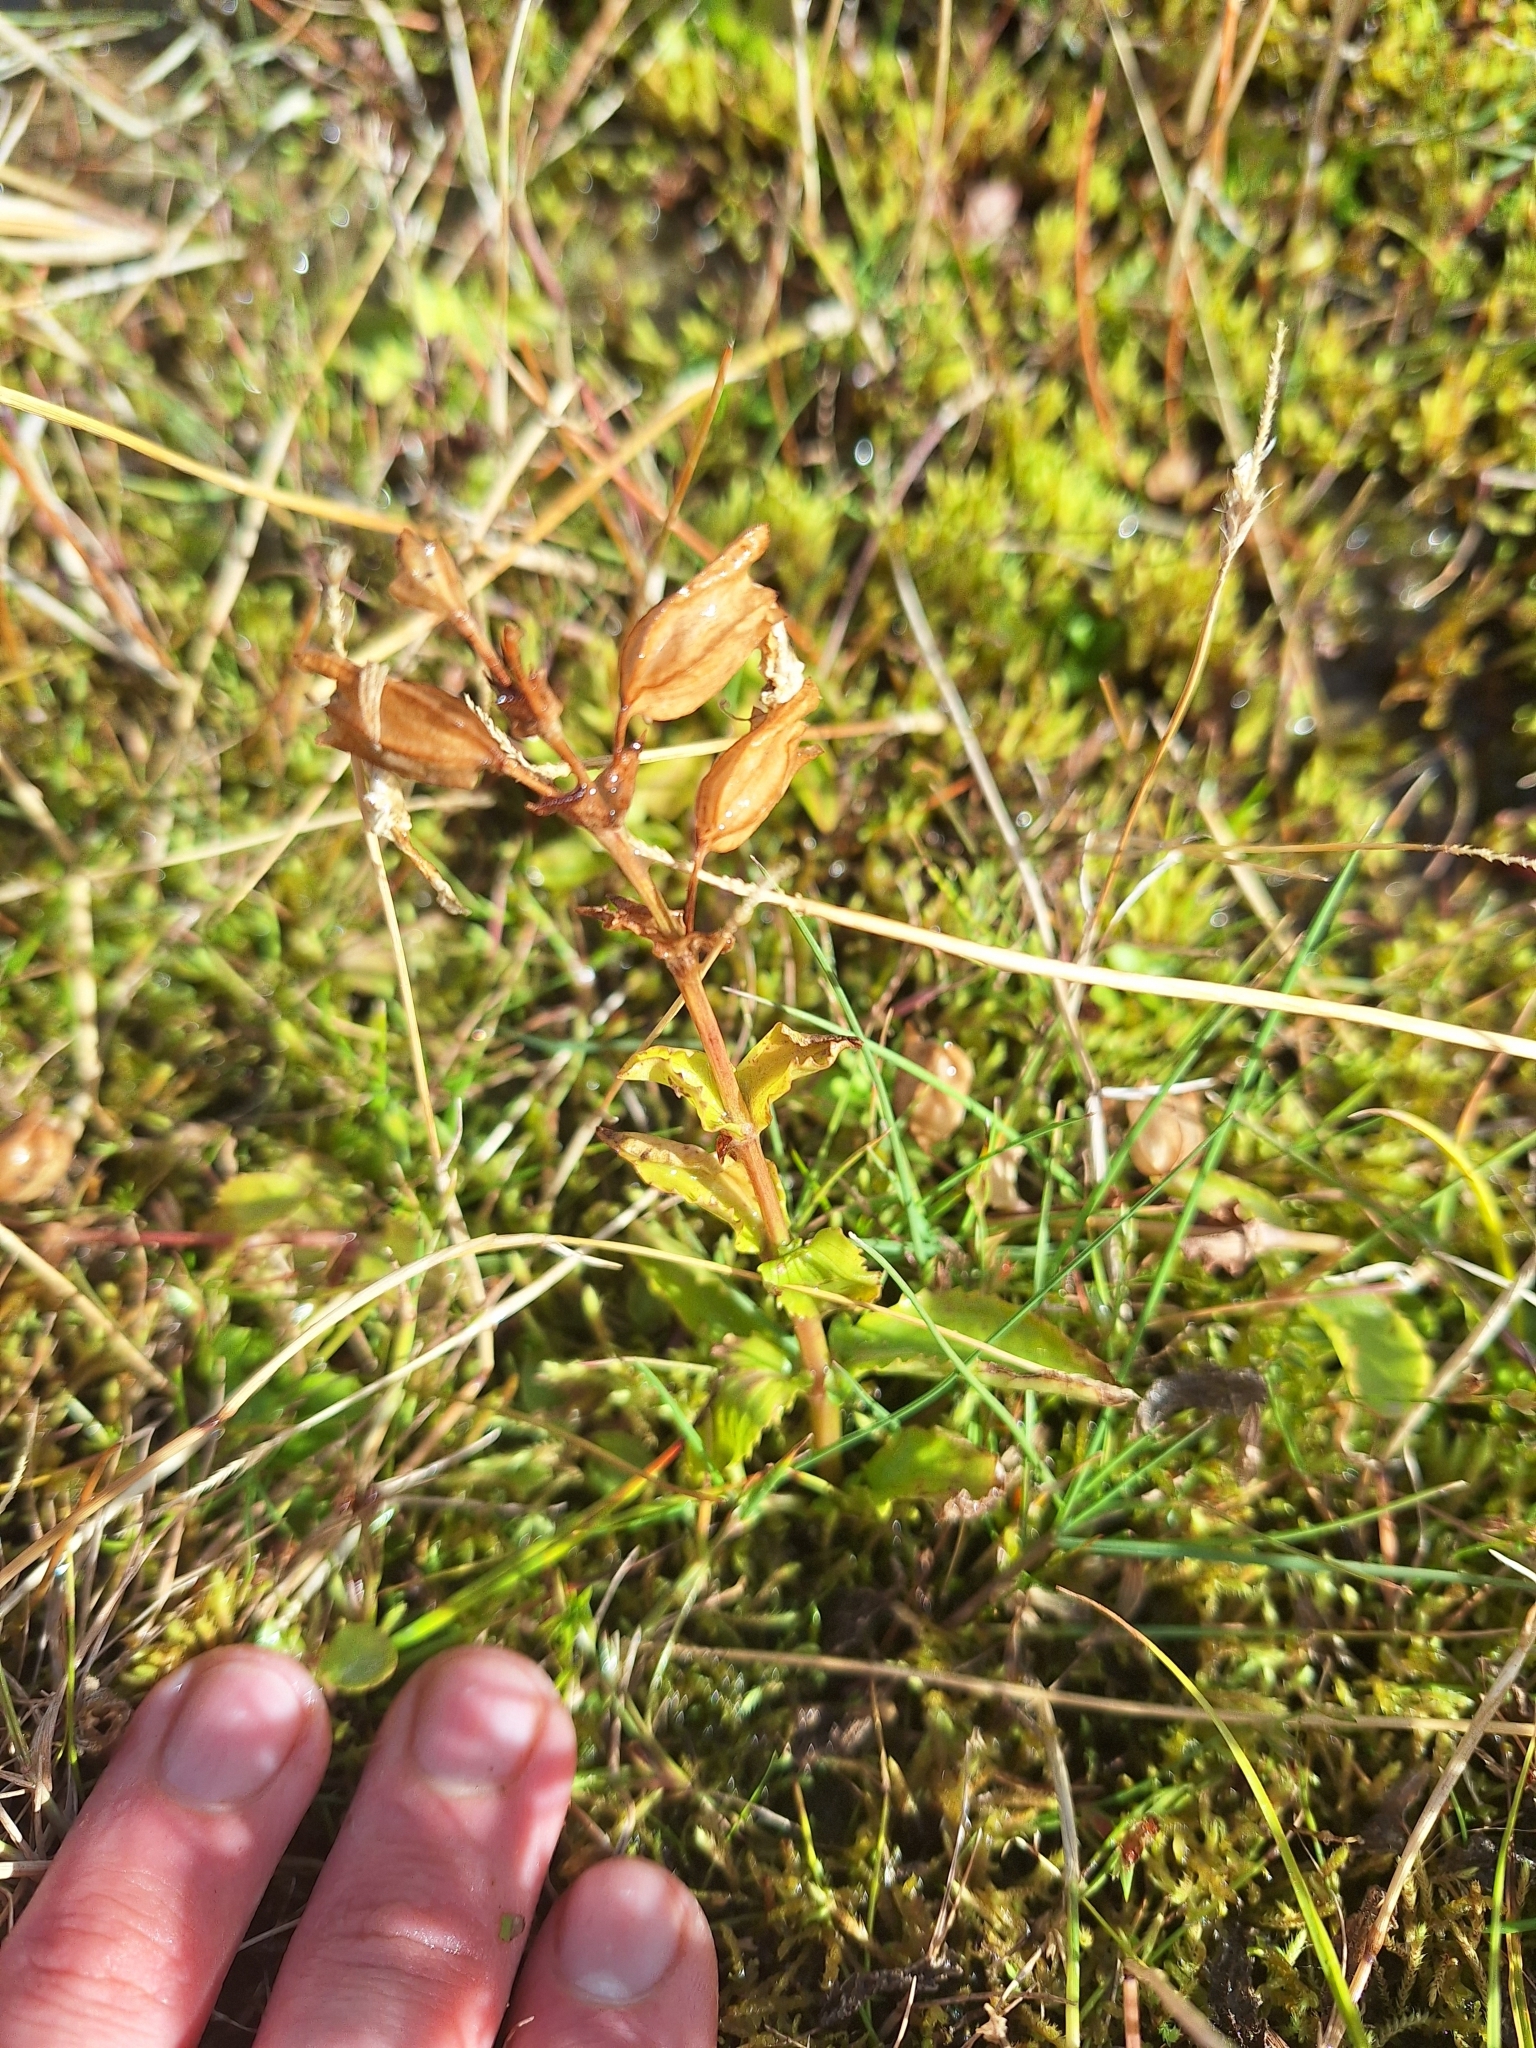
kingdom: Plantae
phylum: Tracheophyta
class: Magnoliopsida
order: Lamiales
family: Phrymaceae
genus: Erythranthe
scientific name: Erythranthe guttata
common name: Monkeyflower
